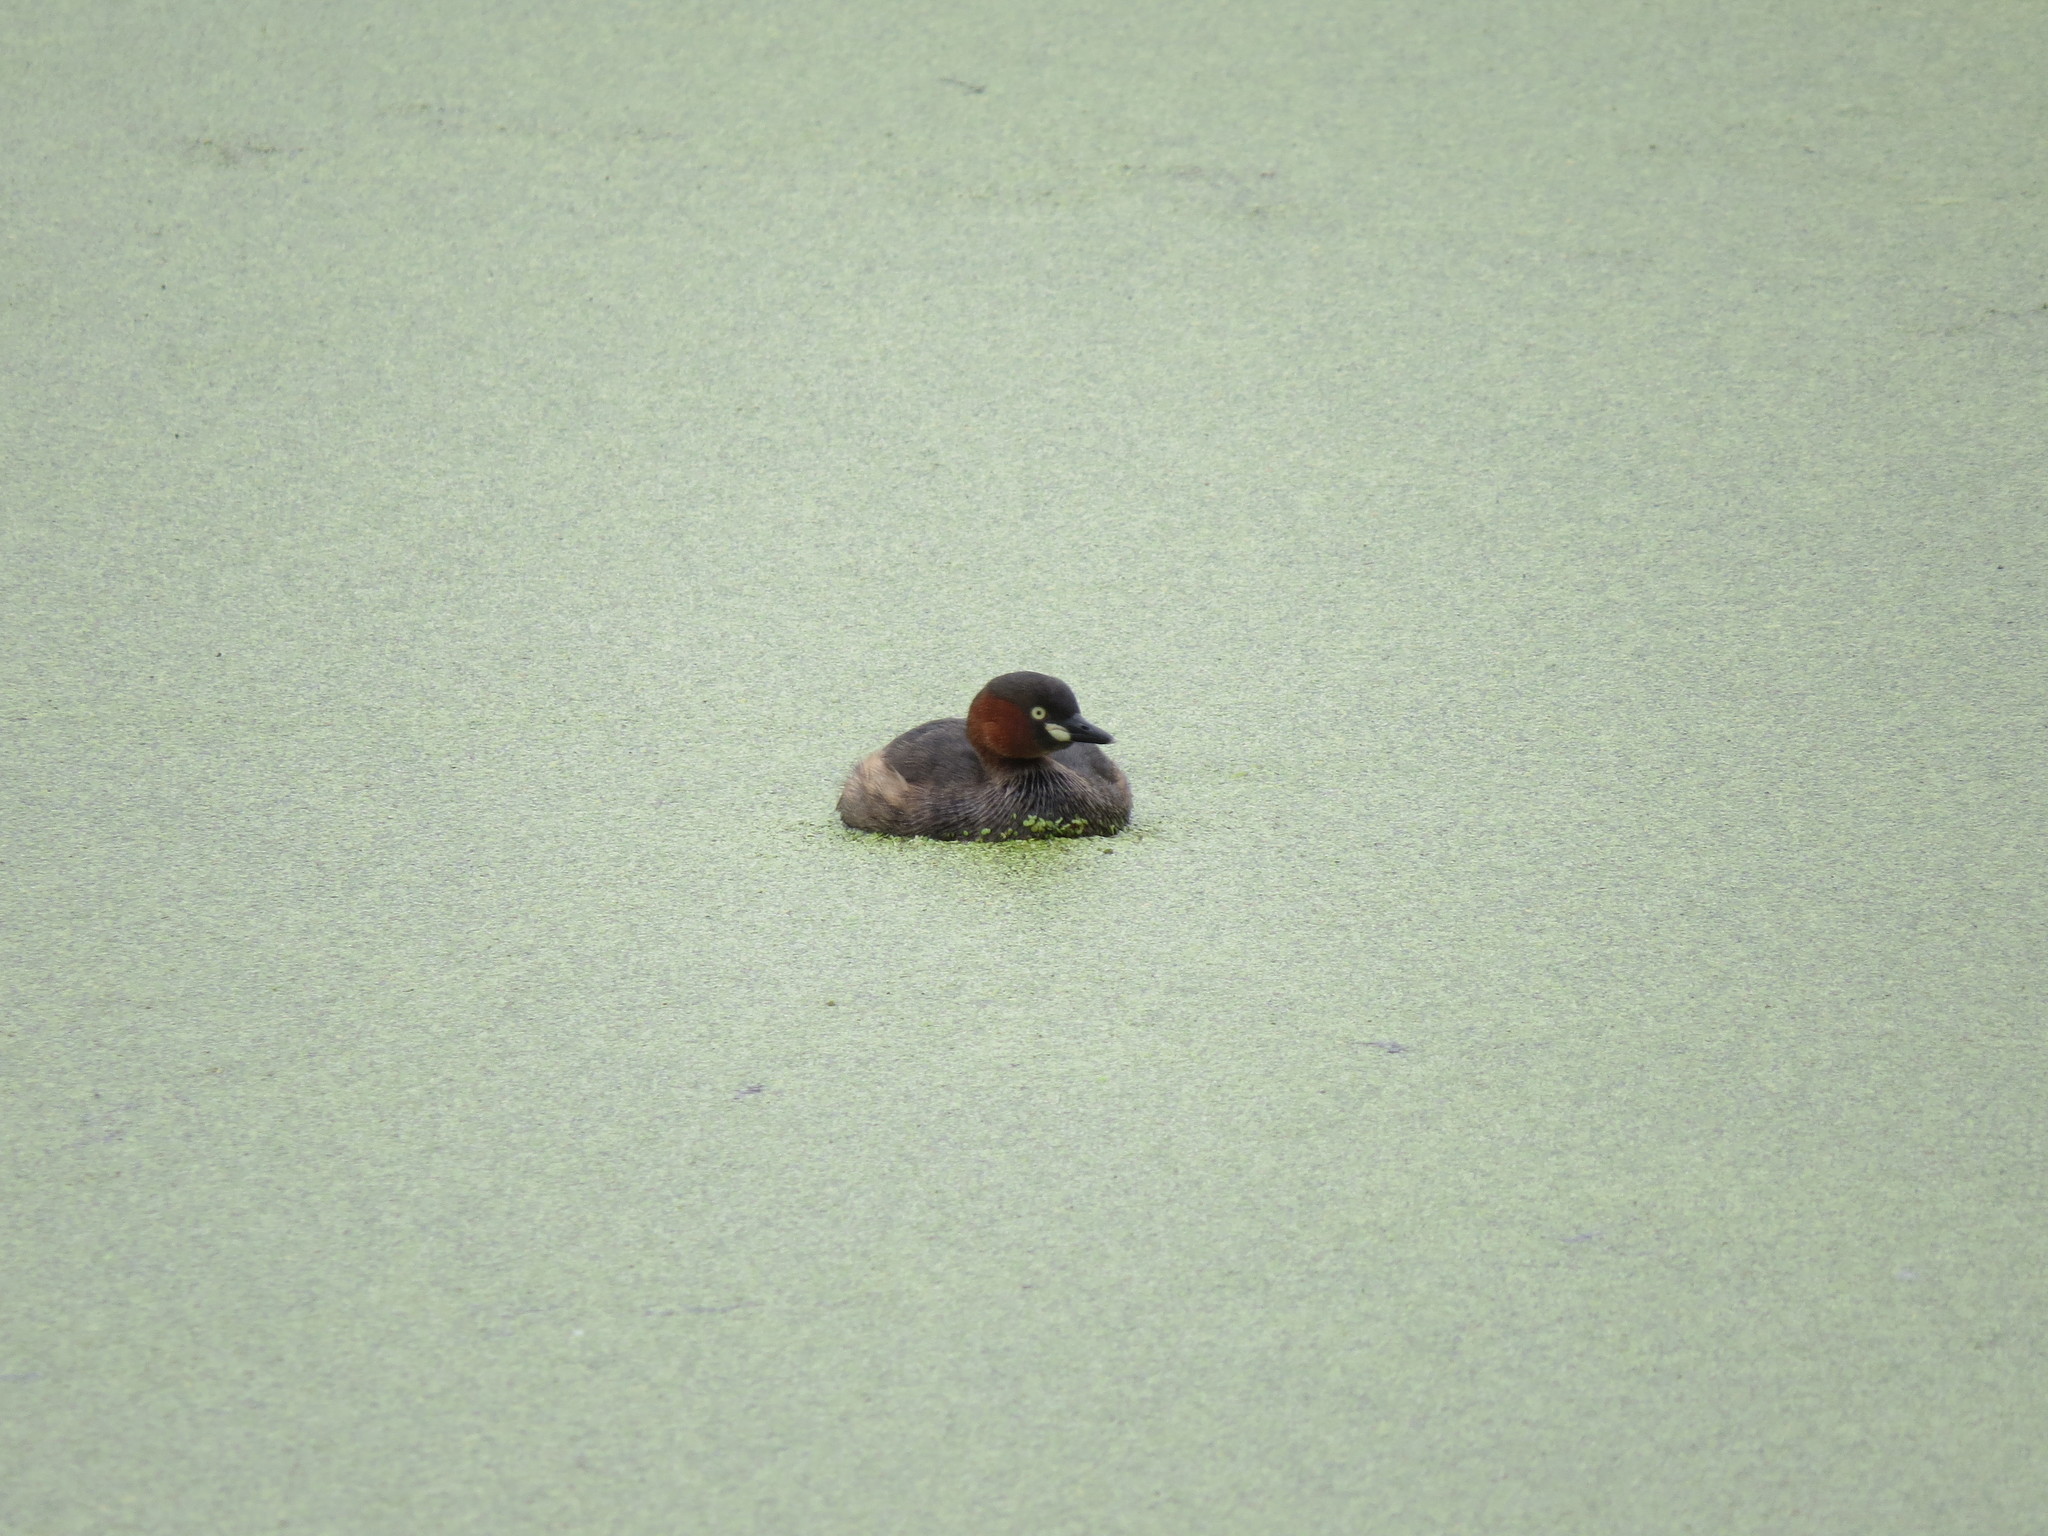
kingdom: Animalia
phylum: Chordata
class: Aves
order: Podicipediformes
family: Podicipedidae
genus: Tachybaptus
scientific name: Tachybaptus ruficollis
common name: Little grebe
